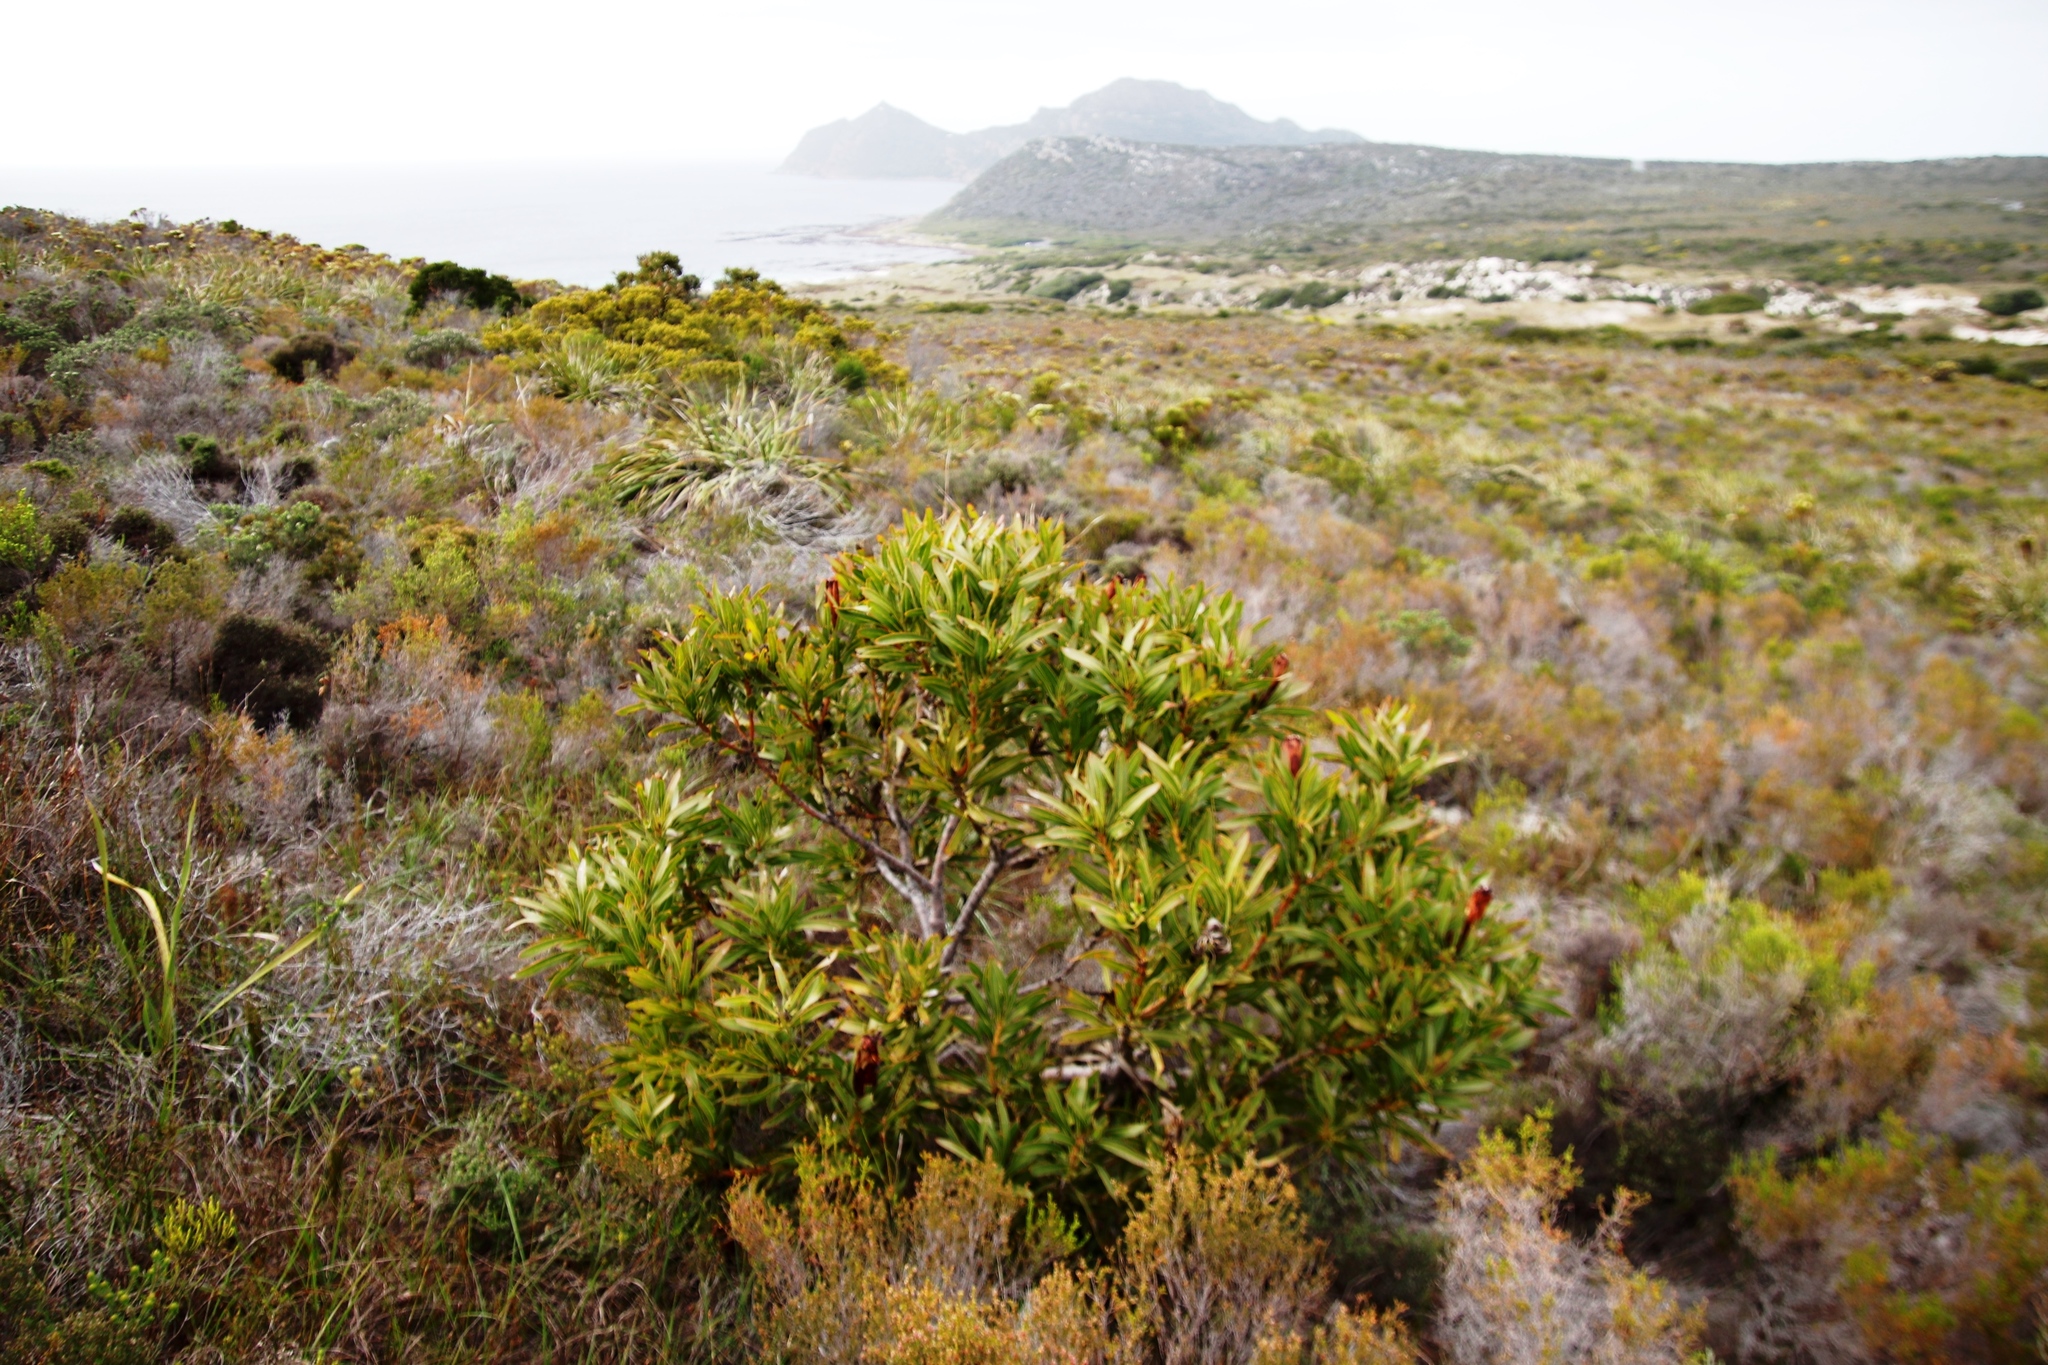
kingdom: Plantae
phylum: Tracheophyta
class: Magnoliopsida
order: Proteales
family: Proteaceae
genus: Protea
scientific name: Protea lepidocarpodendron
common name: Black-bearded protea
